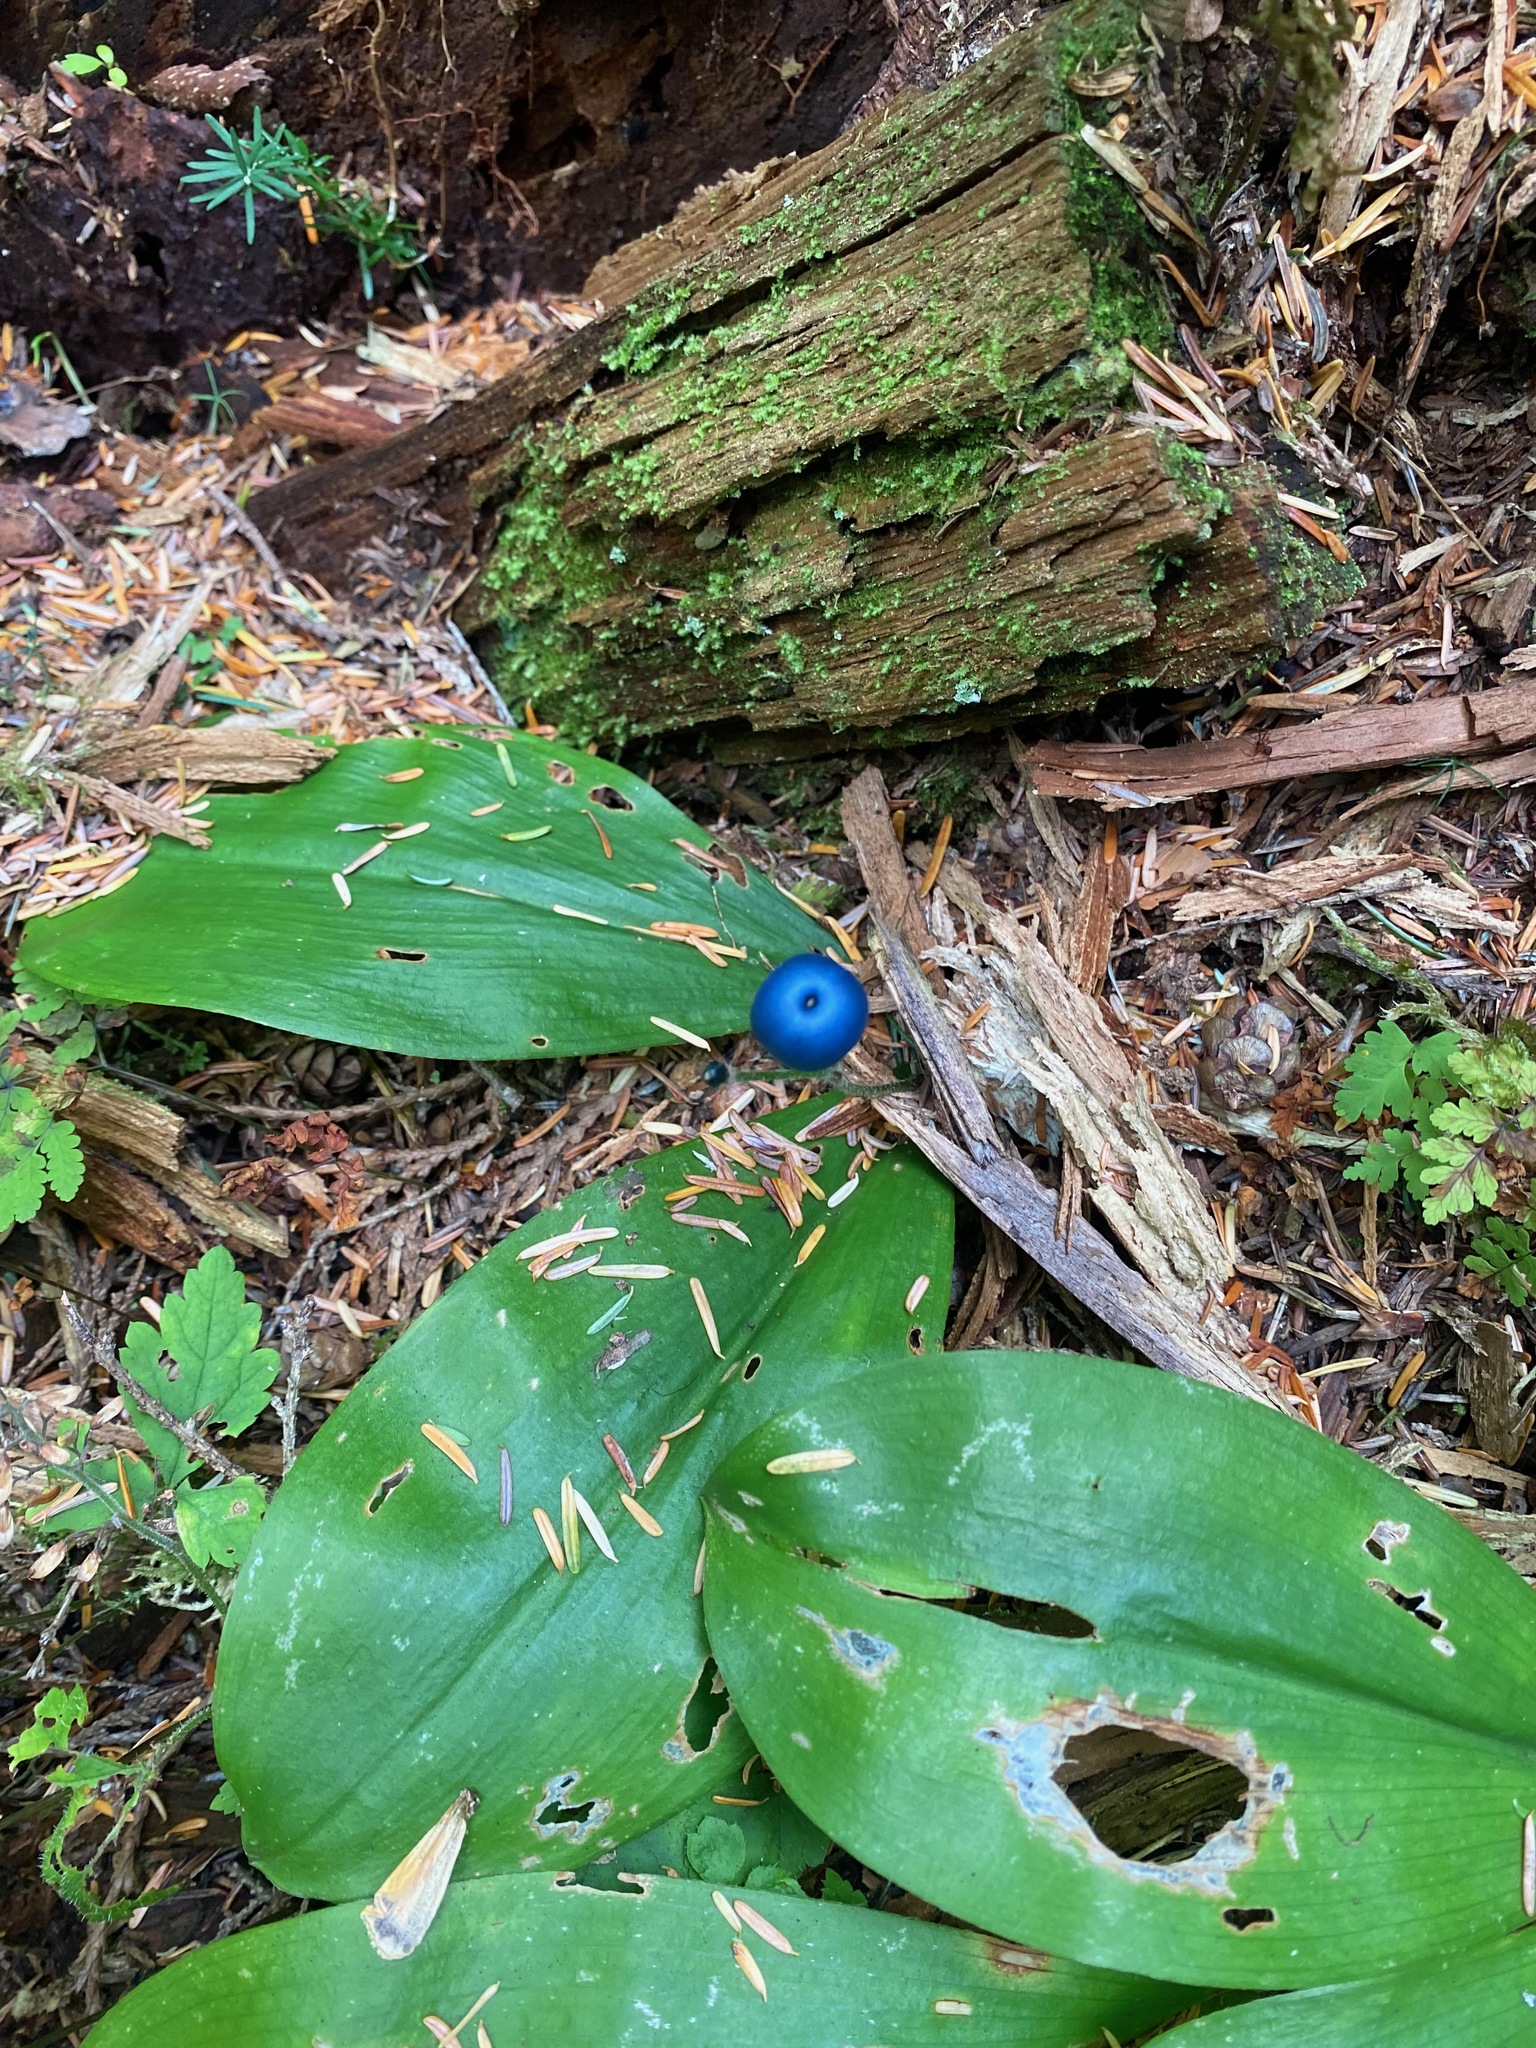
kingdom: Plantae
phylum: Tracheophyta
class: Liliopsida
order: Liliales
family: Liliaceae
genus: Clintonia
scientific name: Clintonia uniflora
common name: Queen's cup
